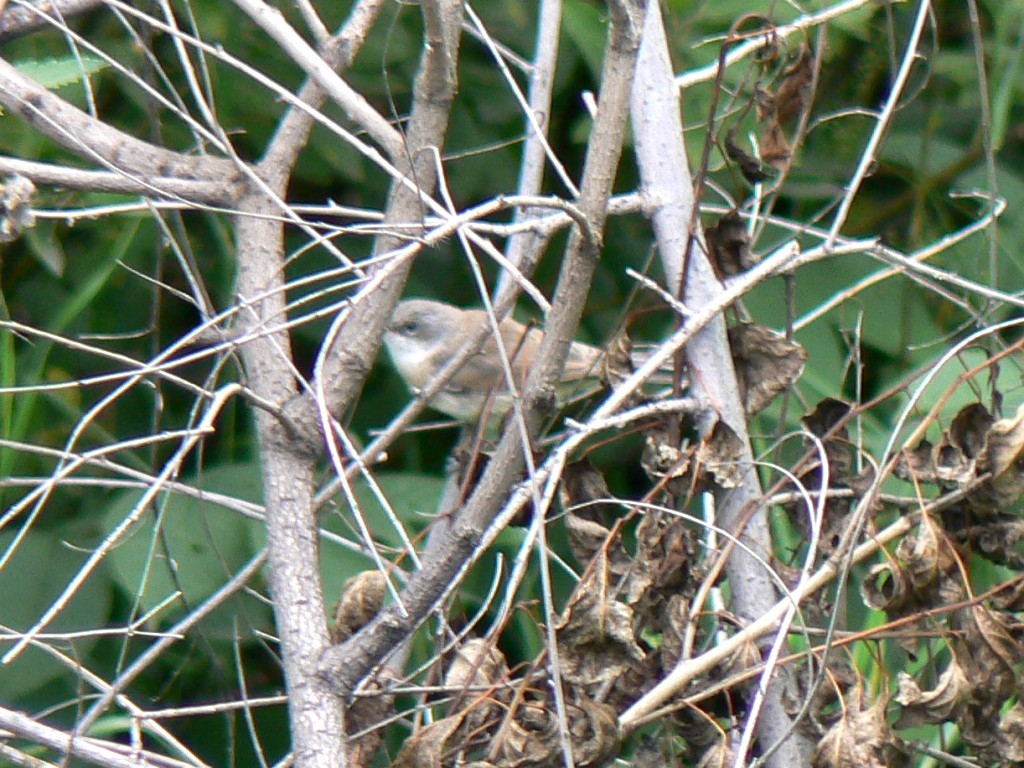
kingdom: Animalia
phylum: Chordata
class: Aves
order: Passeriformes
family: Sylviidae
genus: Sylvia
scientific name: Sylvia curruca
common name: Lesser whitethroat
